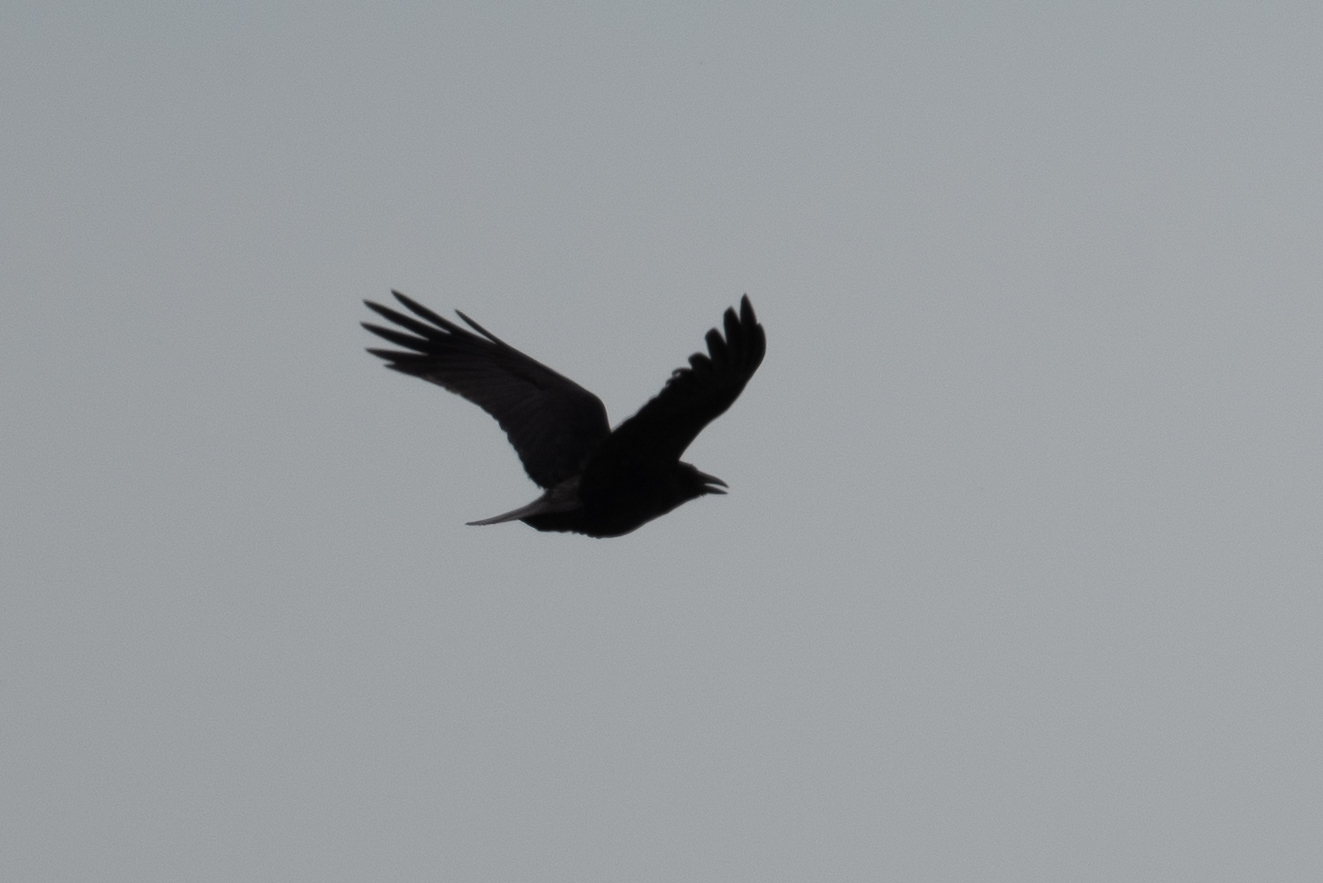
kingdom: Animalia
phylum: Chordata
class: Aves
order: Passeriformes
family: Corvidae
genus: Corvus
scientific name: Corvus corax
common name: Common raven
